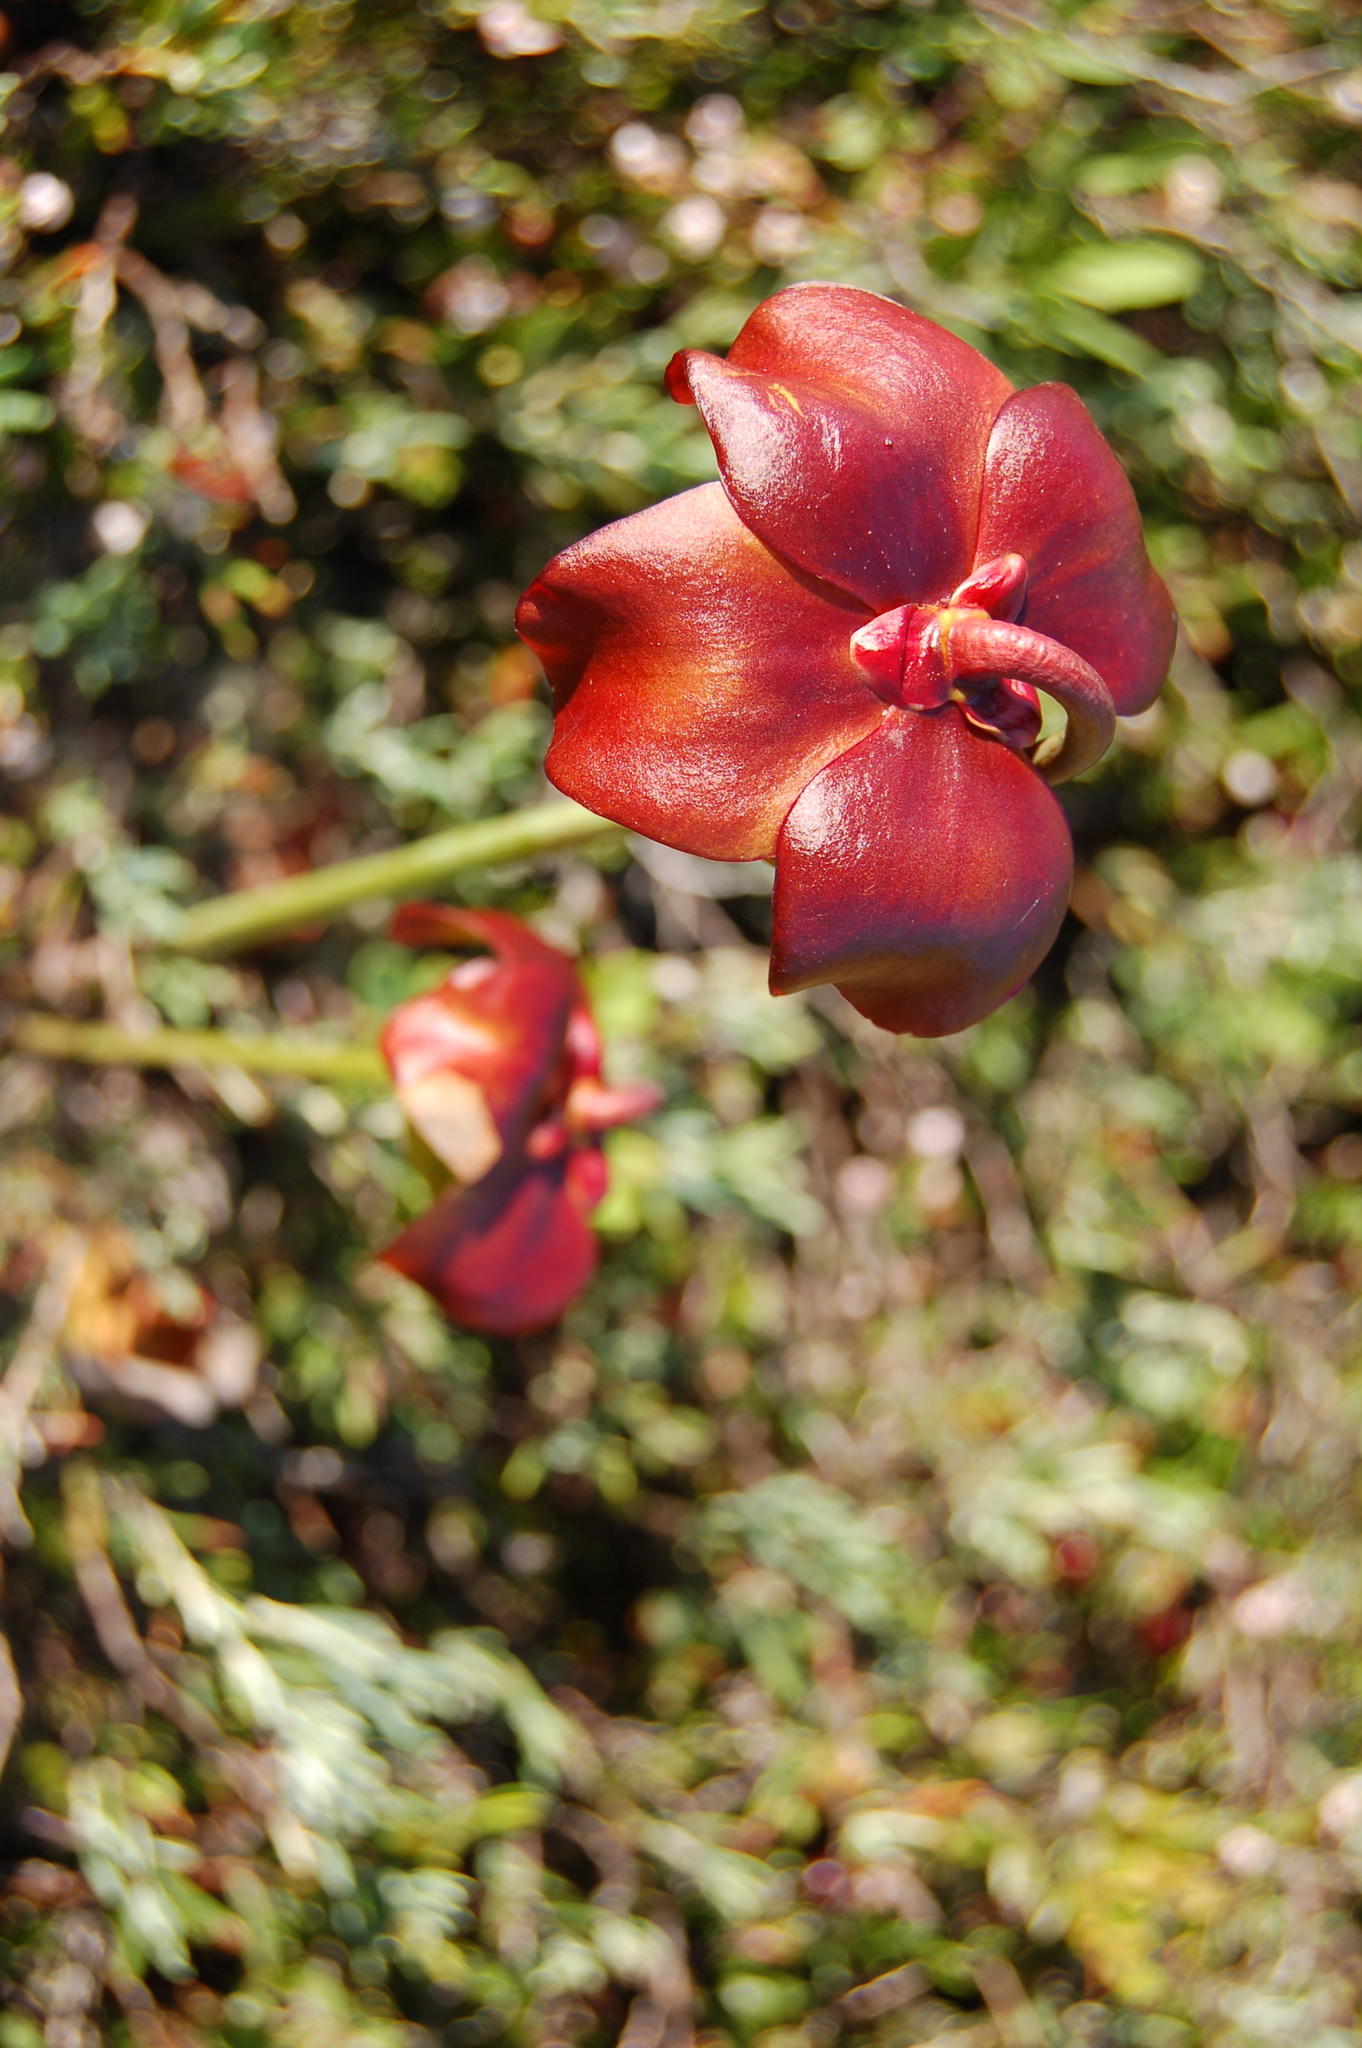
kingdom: Plantae
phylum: Tracheophyta
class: Magnoliopsida
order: Ericales
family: Sarraceniaceae
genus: Sarracenia
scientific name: Sarracenia purpurea
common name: Pitcherplant
